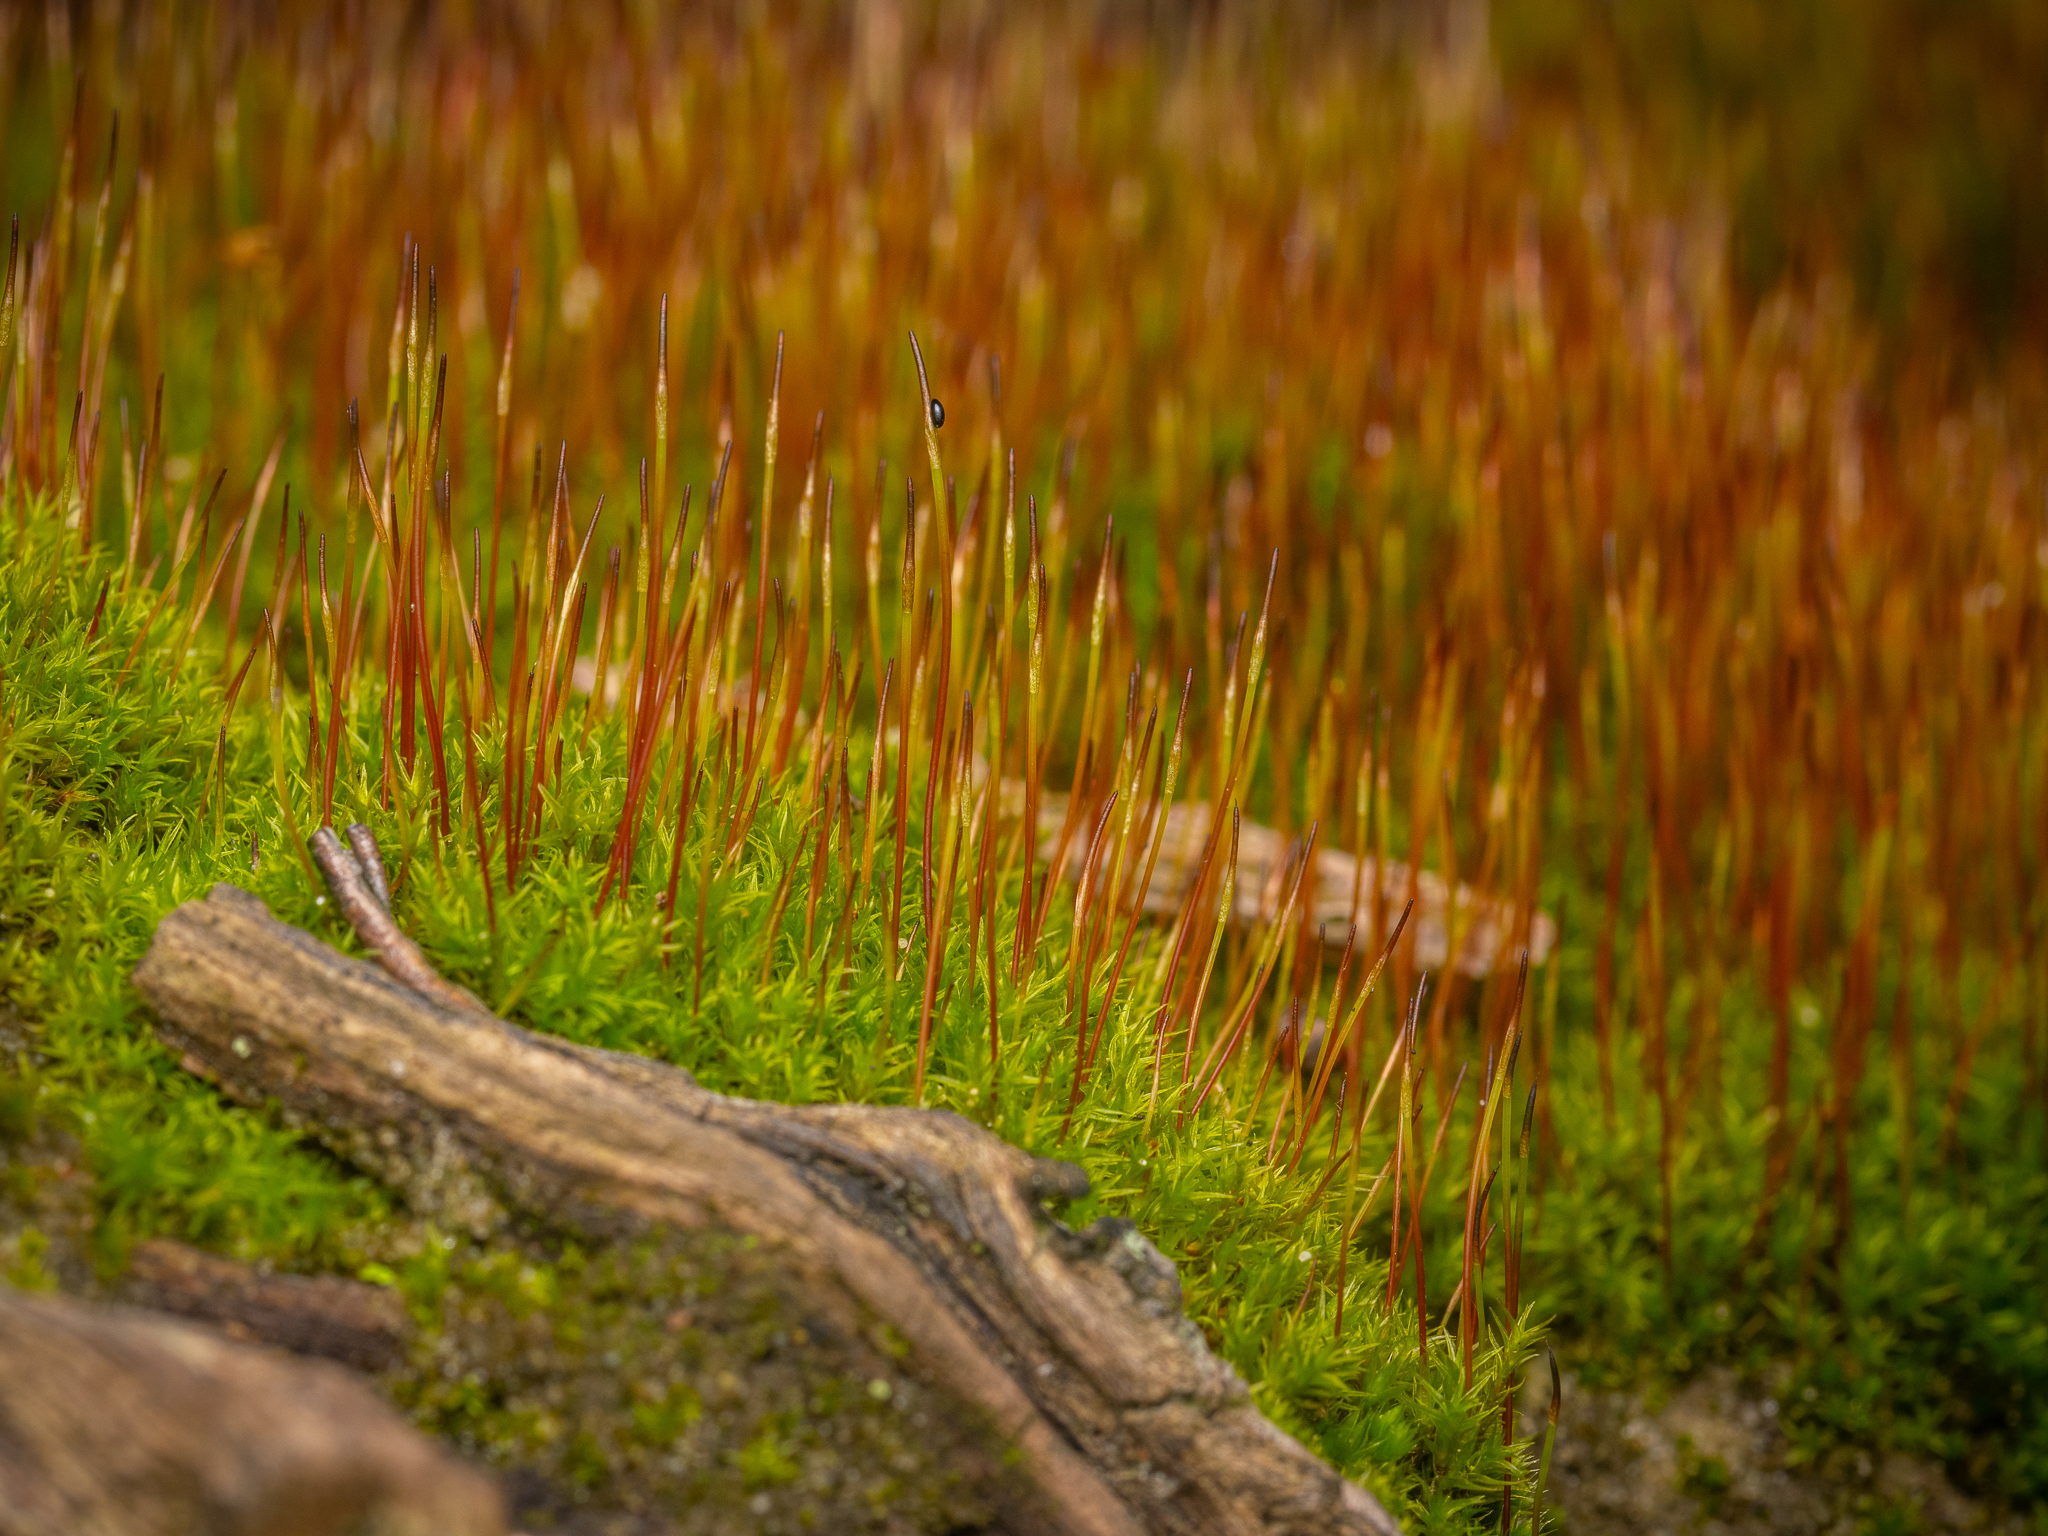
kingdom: Plantae
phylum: Bryophyta
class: Bryopsida
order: Dicranales
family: Ditrichaceae
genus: Ceratodon
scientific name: Ceratodon purpureus
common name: Redshank
